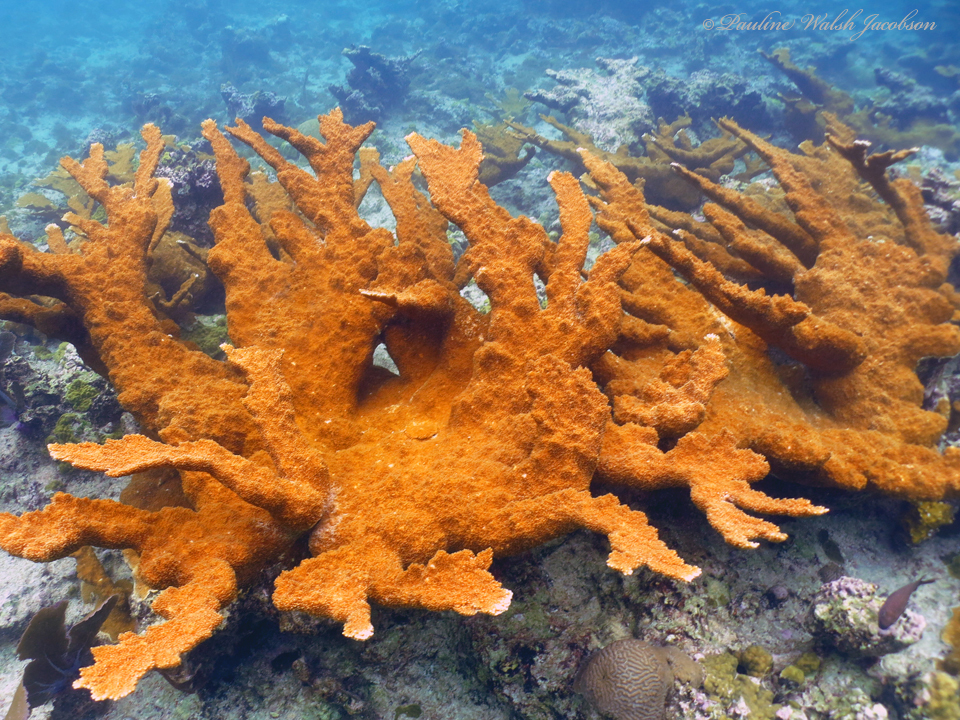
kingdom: Animalia
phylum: Cnidaria
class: Anthozoa
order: Scleractinia
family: Acroporidae
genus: Acropora
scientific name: Acropora palmata
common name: Elkhorn coral
